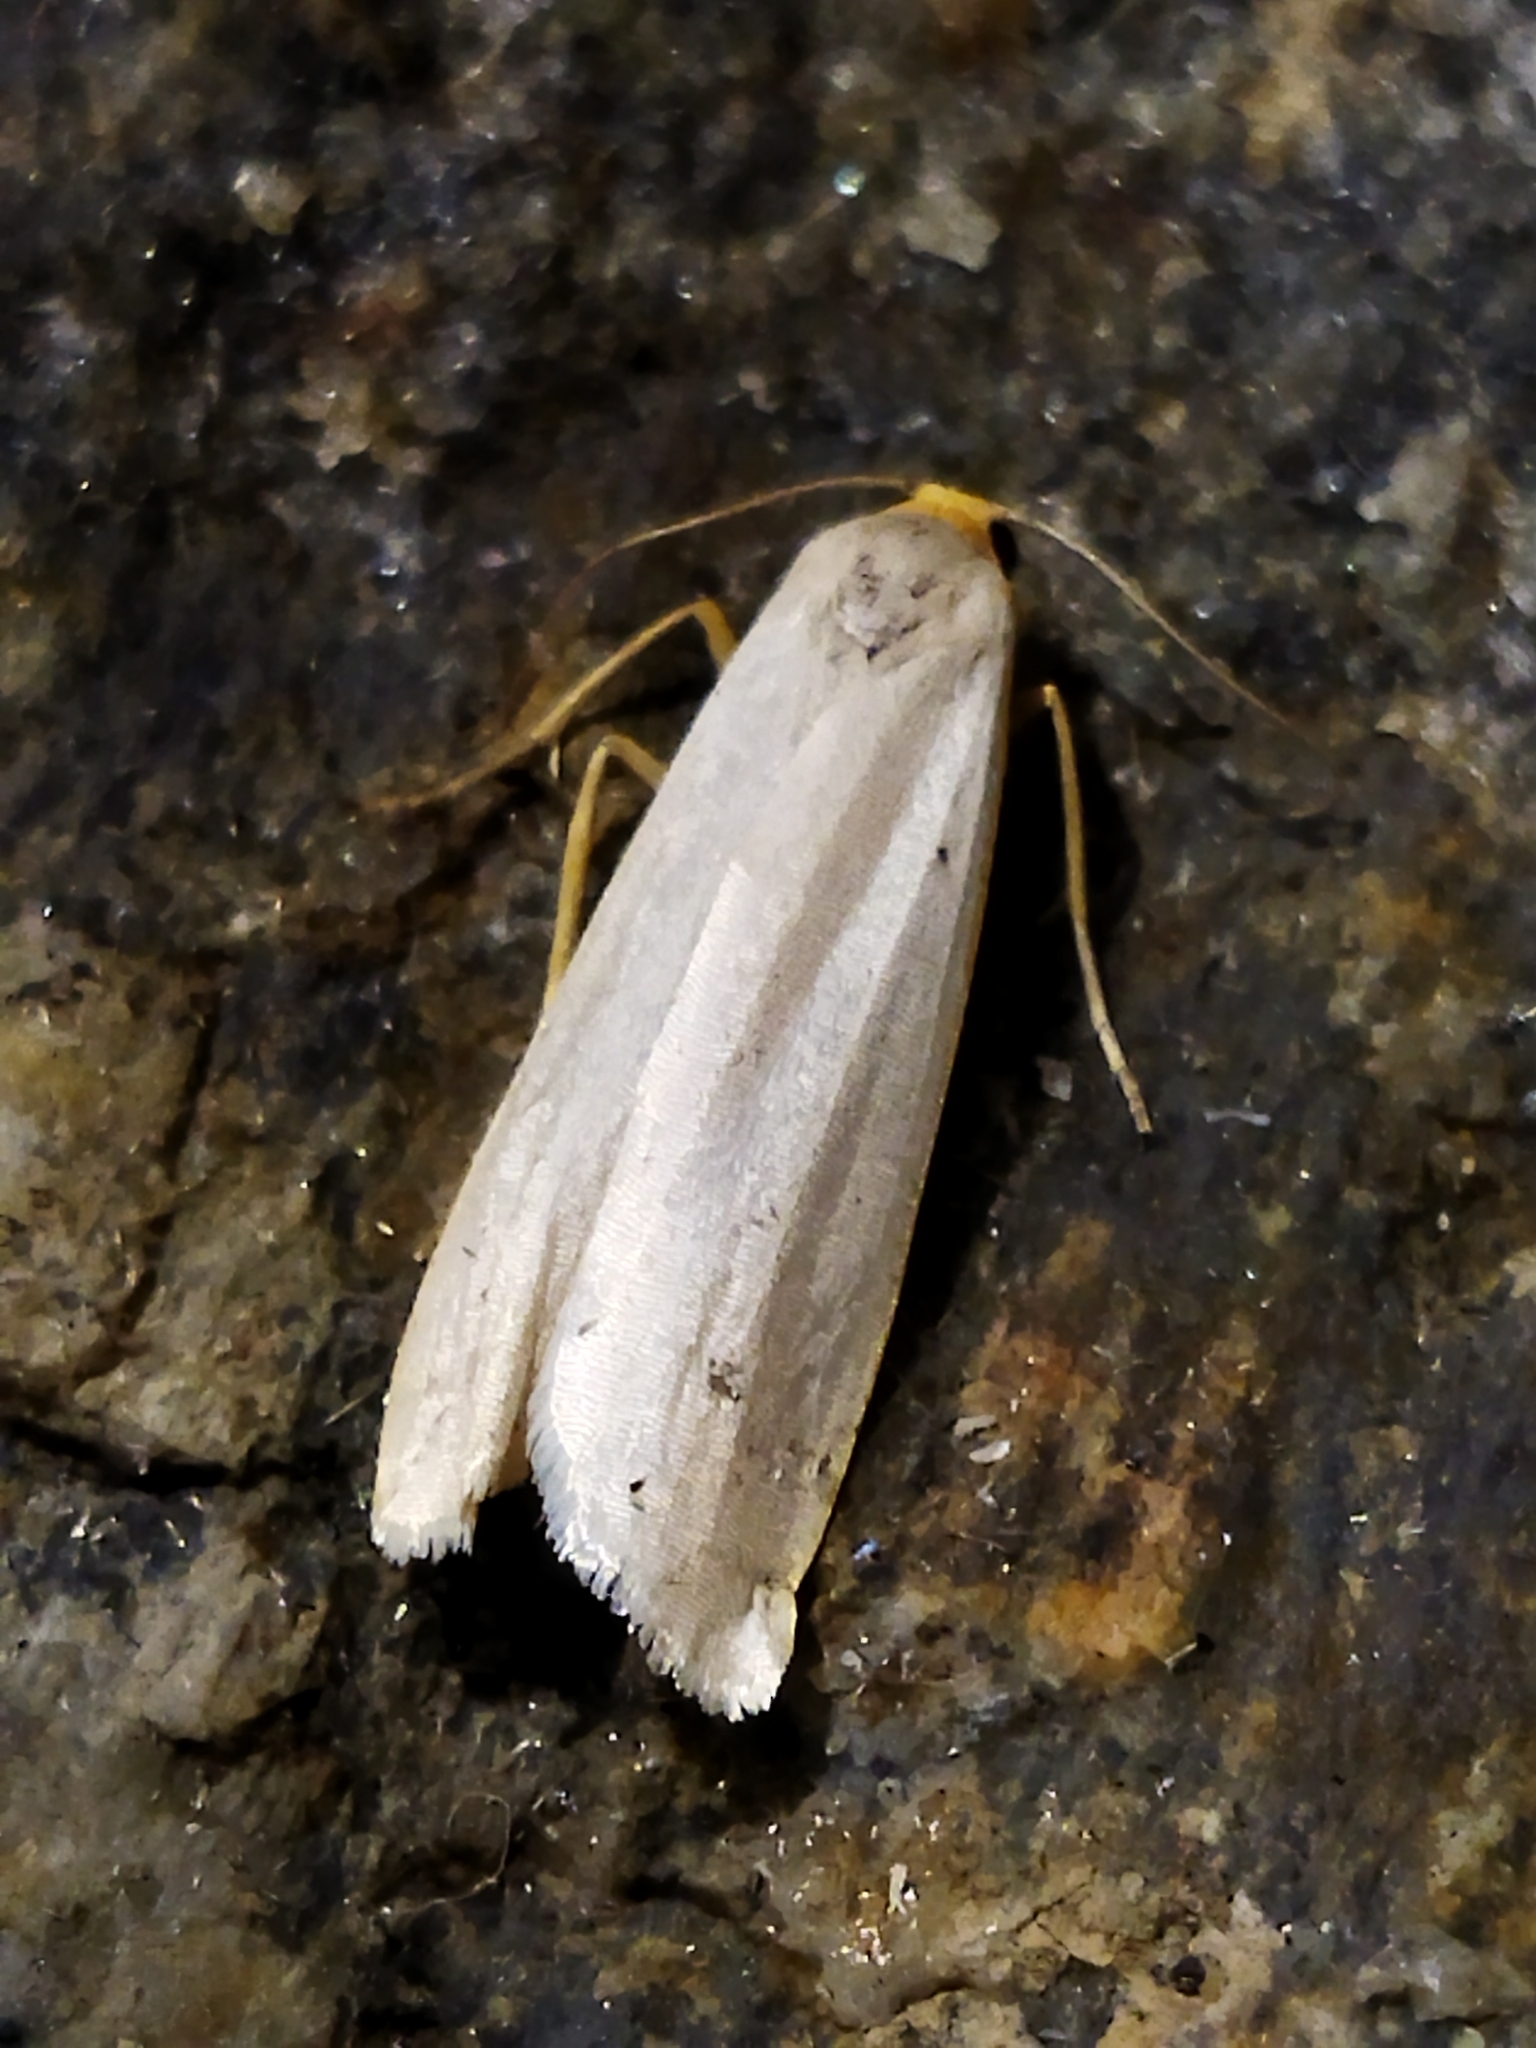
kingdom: Animalia
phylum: Arthropoda
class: Insecta
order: Lepidoptera
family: Erebidae
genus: Eilema
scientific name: Eilema caniola
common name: Hoary footman
